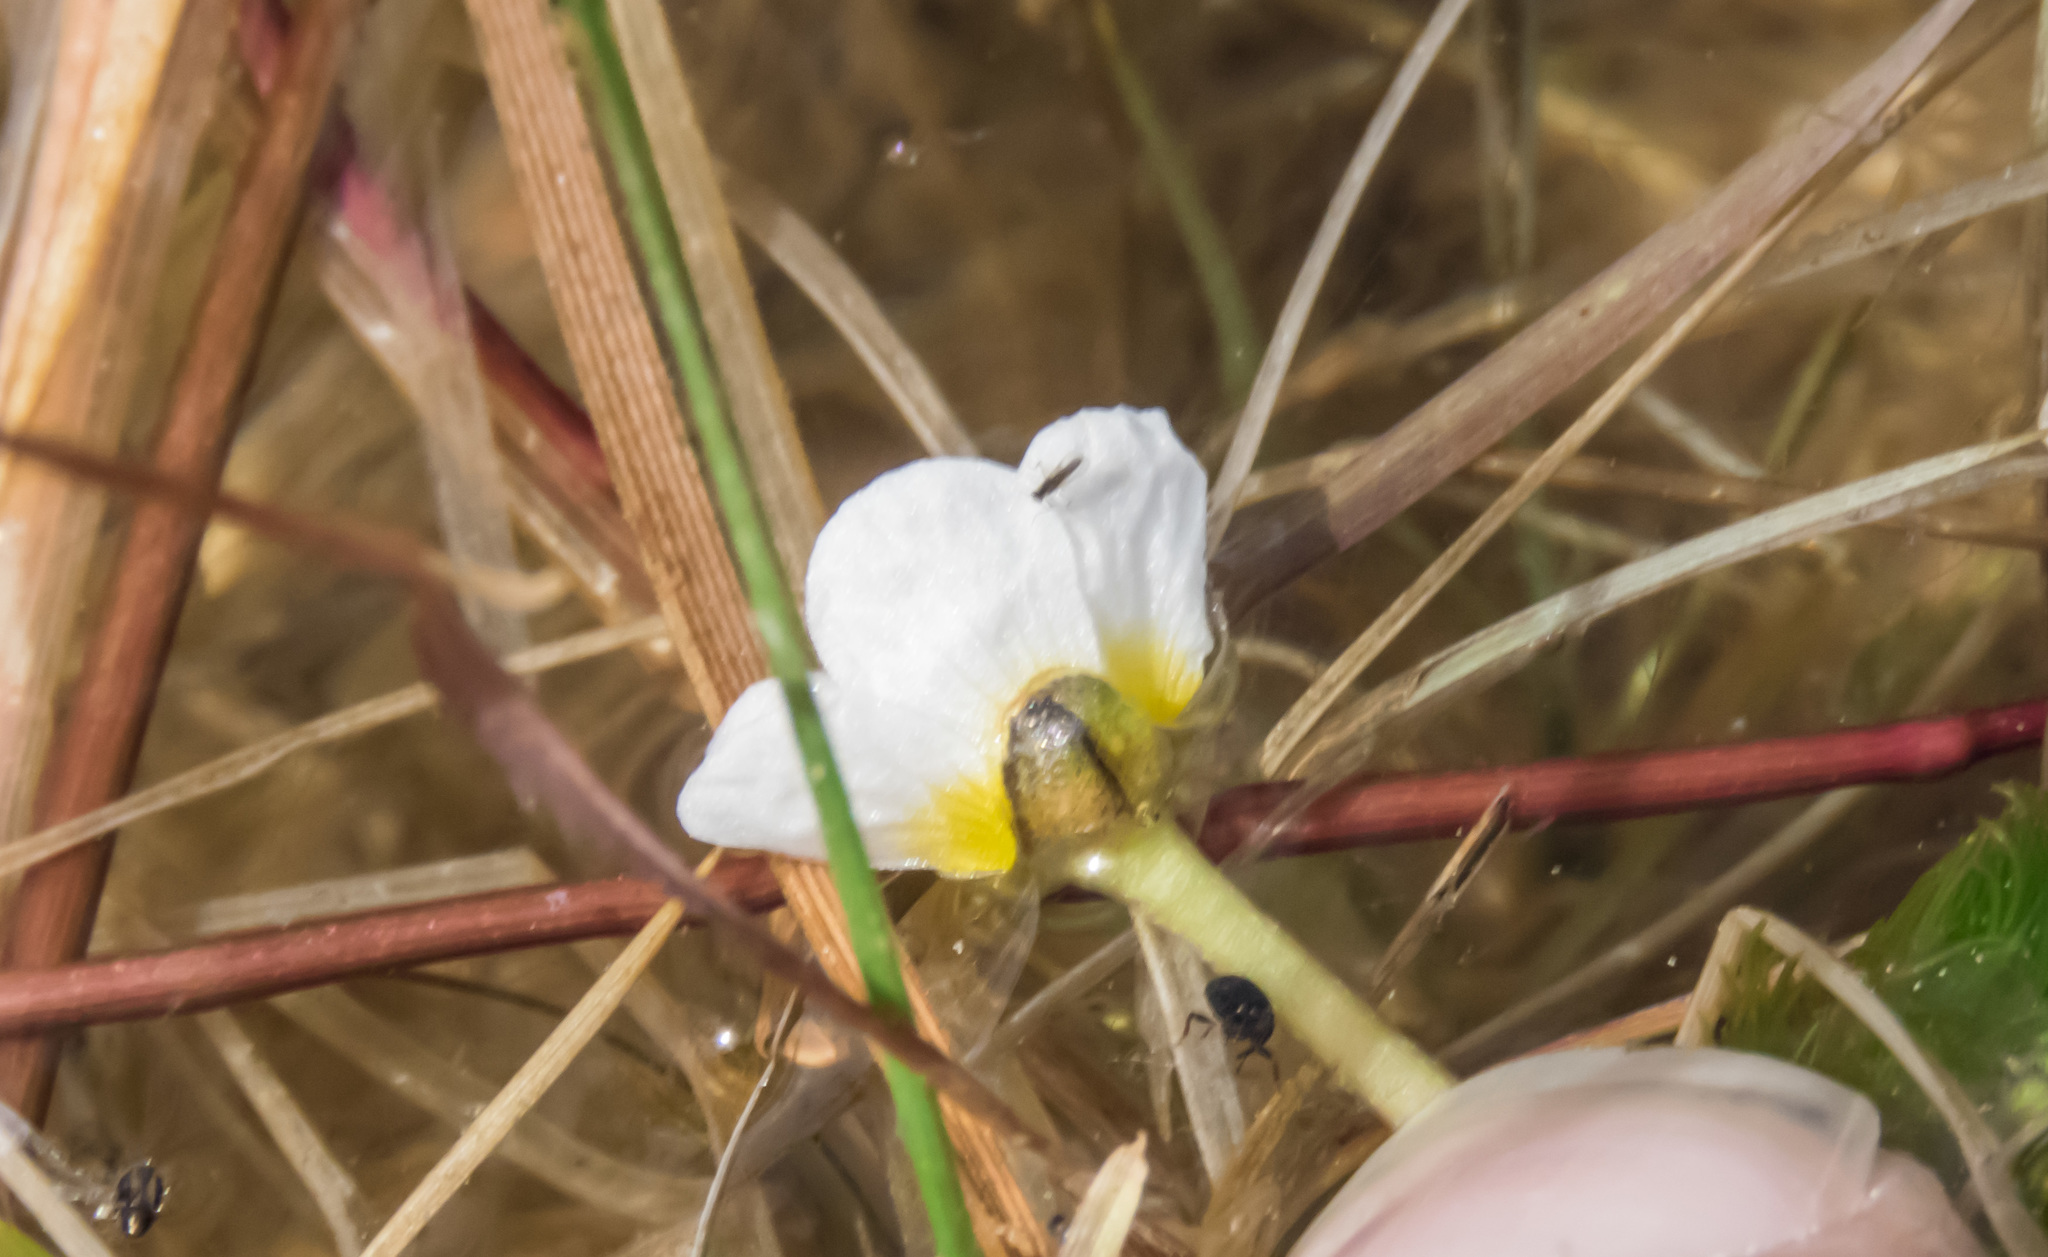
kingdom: Plantae
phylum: Tracheophyta
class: Magnoliopsida
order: Ranunculales
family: Ranunculaceae
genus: Ranunculus
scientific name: Ranunculus trichophyllus
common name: Thread-leaved water-crowfoot
